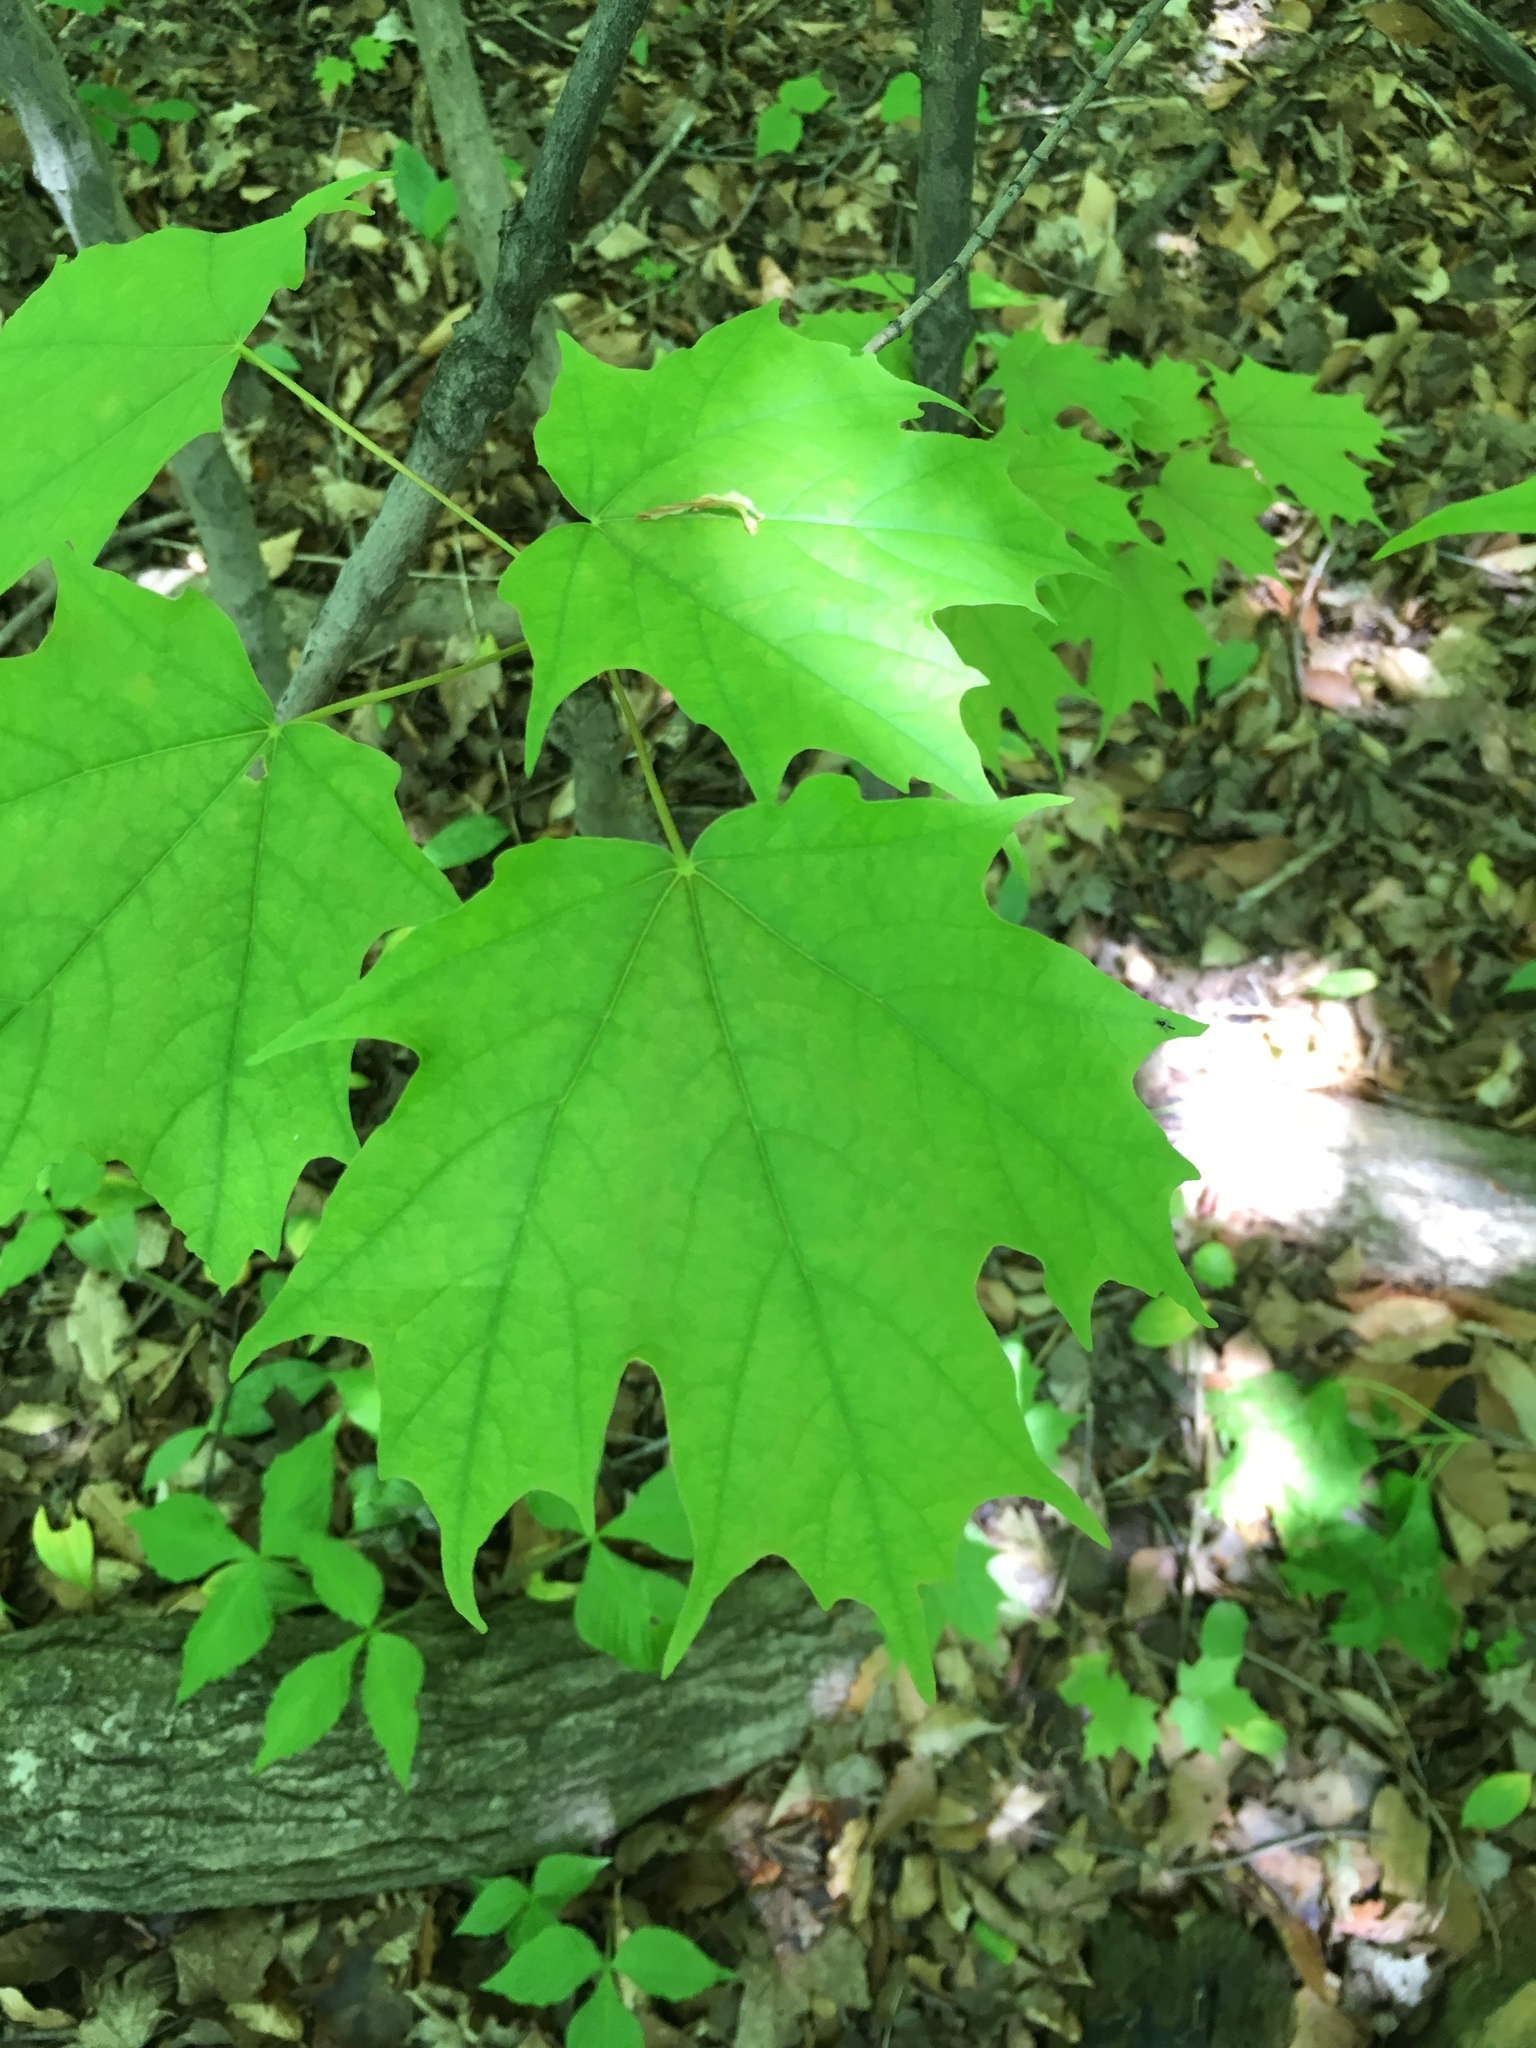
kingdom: Plantae
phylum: Tracheophyta
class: Magnoliopsida
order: Sapindales
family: Sapindaceae
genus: Acer
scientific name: Acer saccharum
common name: Sugar maple
